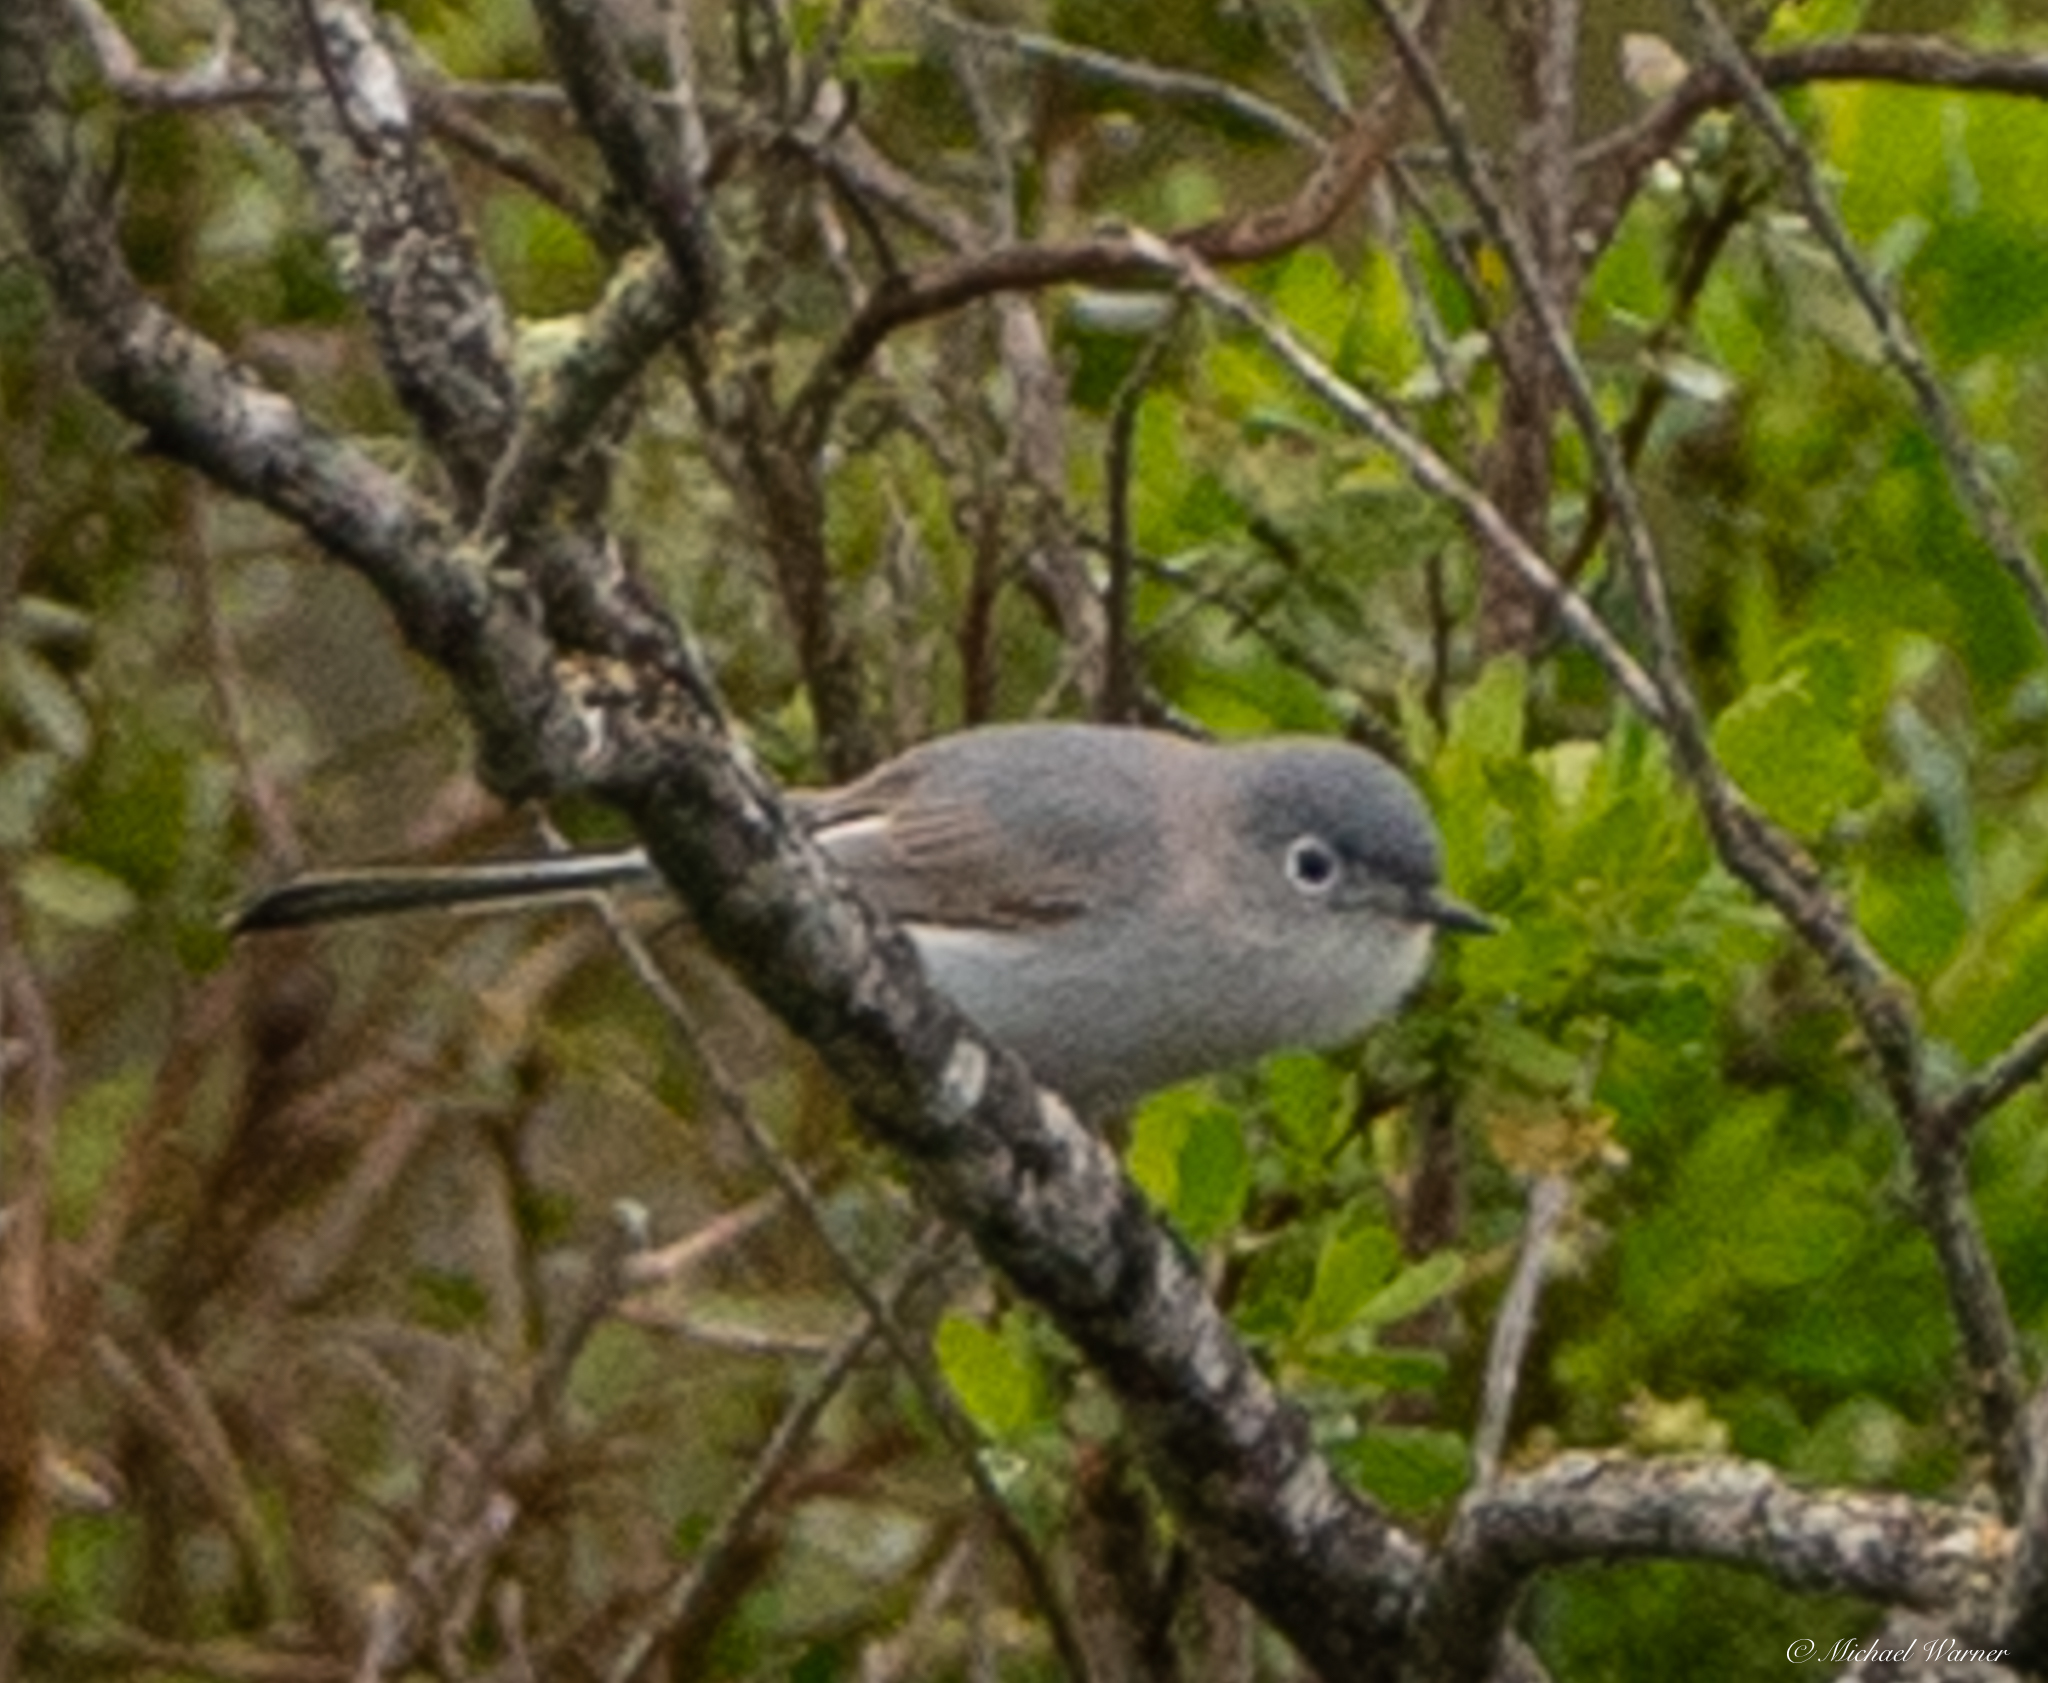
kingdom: Animalia
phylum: Chordata
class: Aves
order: Passeriformes
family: Polioptilidae
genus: Polioptila
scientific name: Polioptila caerulea
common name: Blue-gray gnatcatcher
